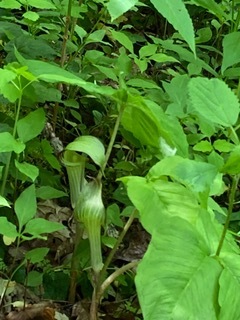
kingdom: Plantae
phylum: Tracheophyta
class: Liliopsida
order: Alismatales
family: Araceae
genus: Arisaema
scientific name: Arisaema triphyllum
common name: Jack-in-the-pulpit
